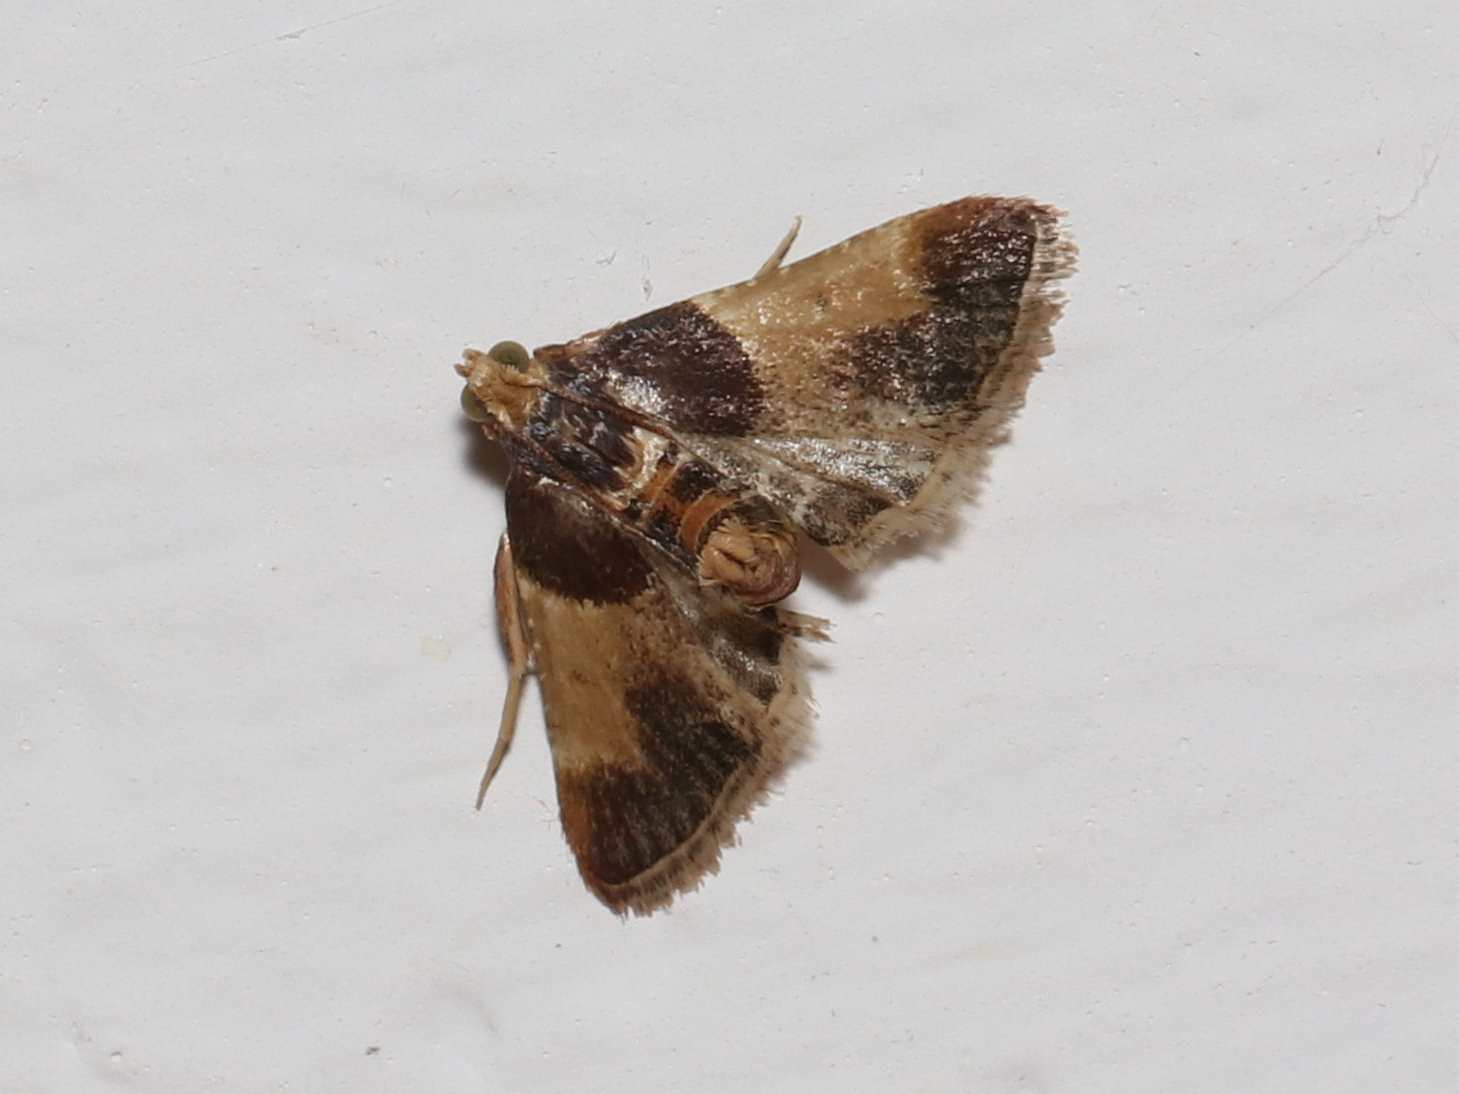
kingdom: Animalia
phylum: Arthropoda
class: Insecta
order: Lepidoptera
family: Pyralidae
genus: Pyralis
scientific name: Pyralis farinalis
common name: Meal moth
